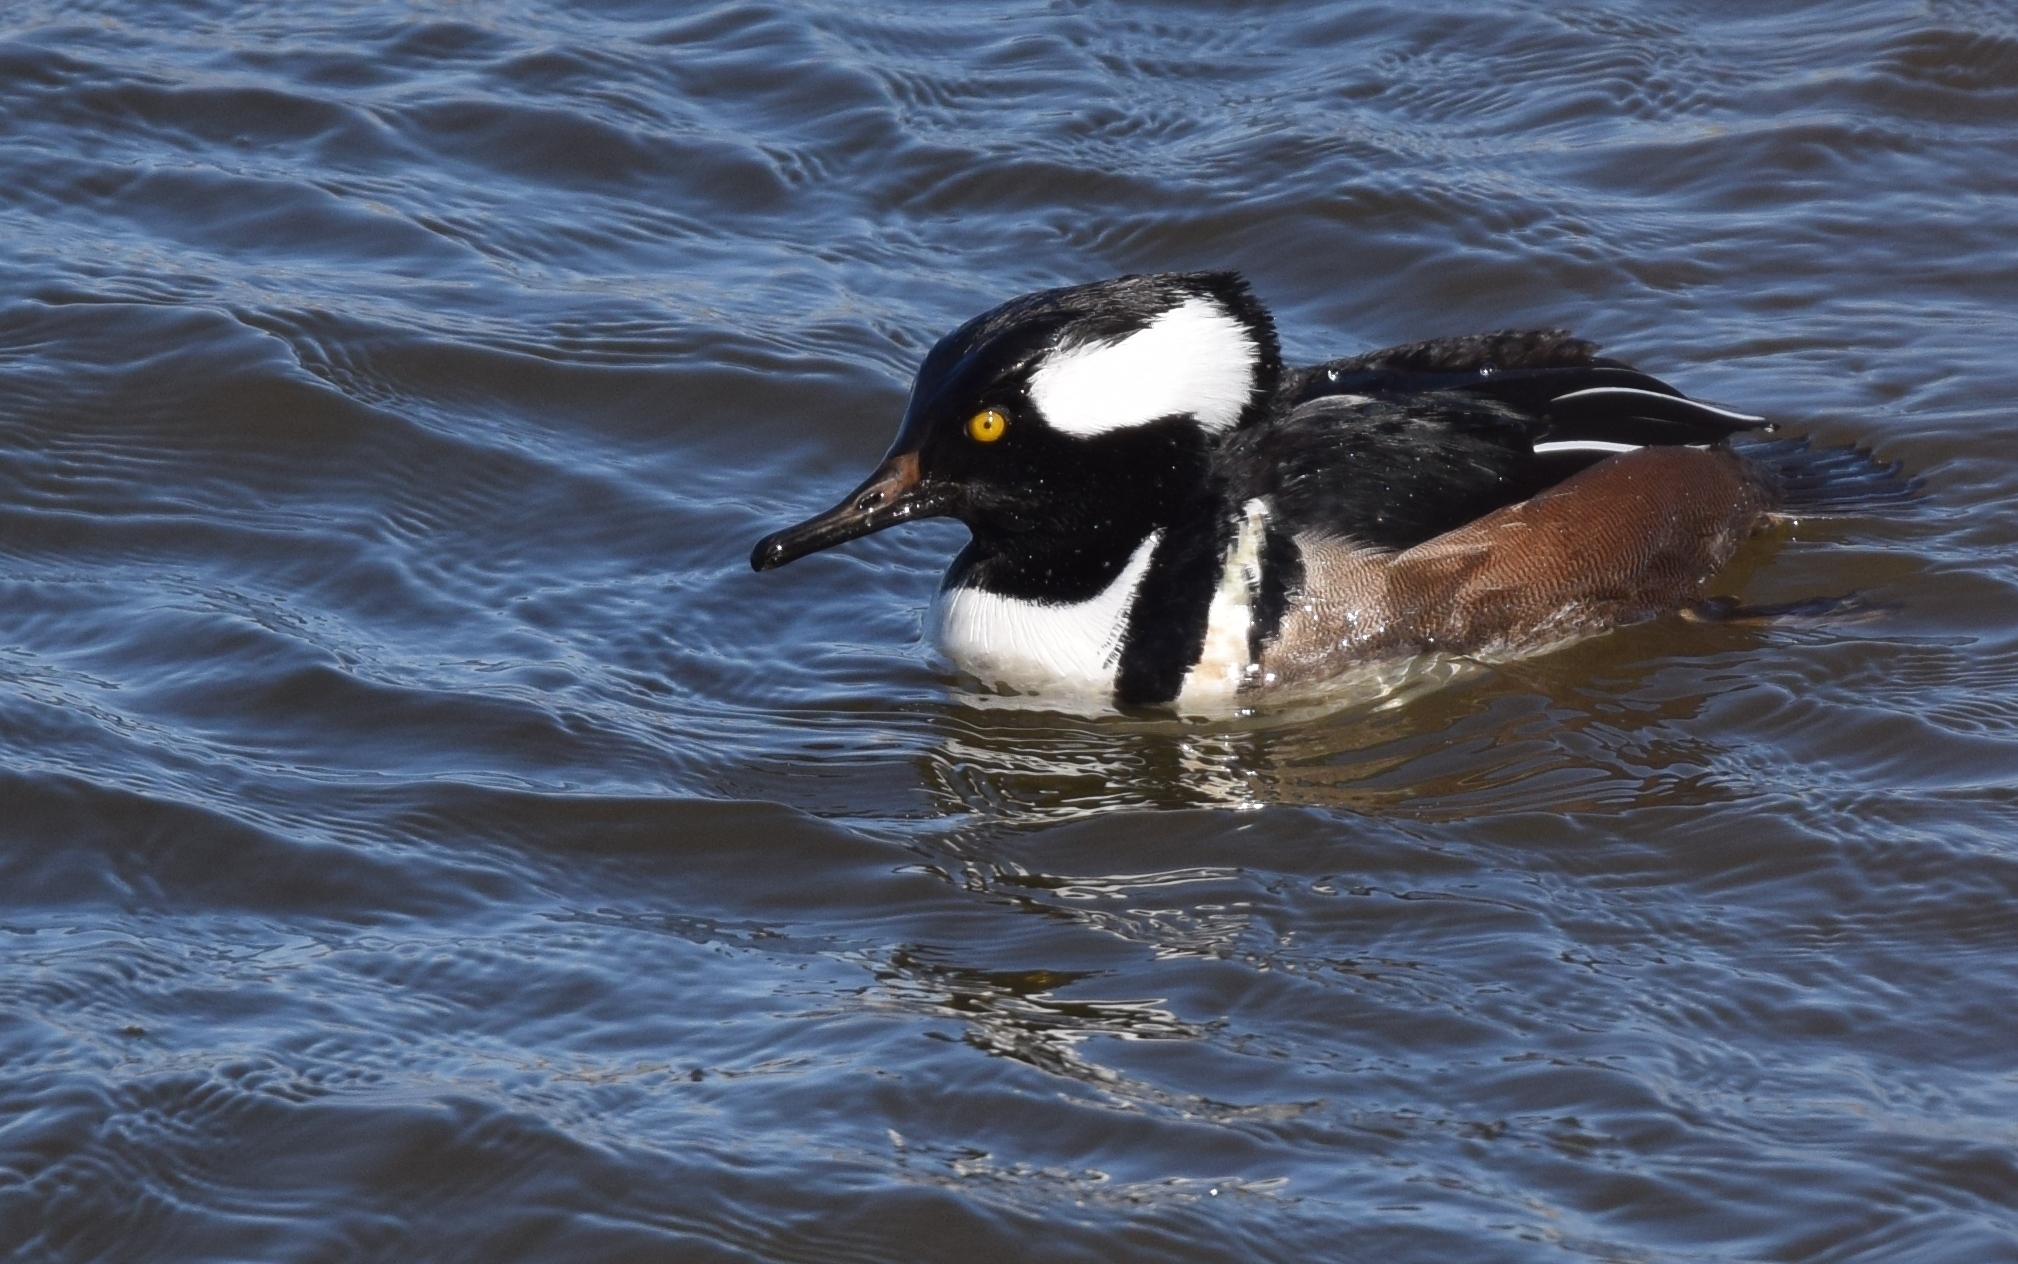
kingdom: Animalia
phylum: Chordata
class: Aves
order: Anseriformes
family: Anatidae
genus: Lophodytes
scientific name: Lophodytes cucullatus
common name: Hooded merganser
